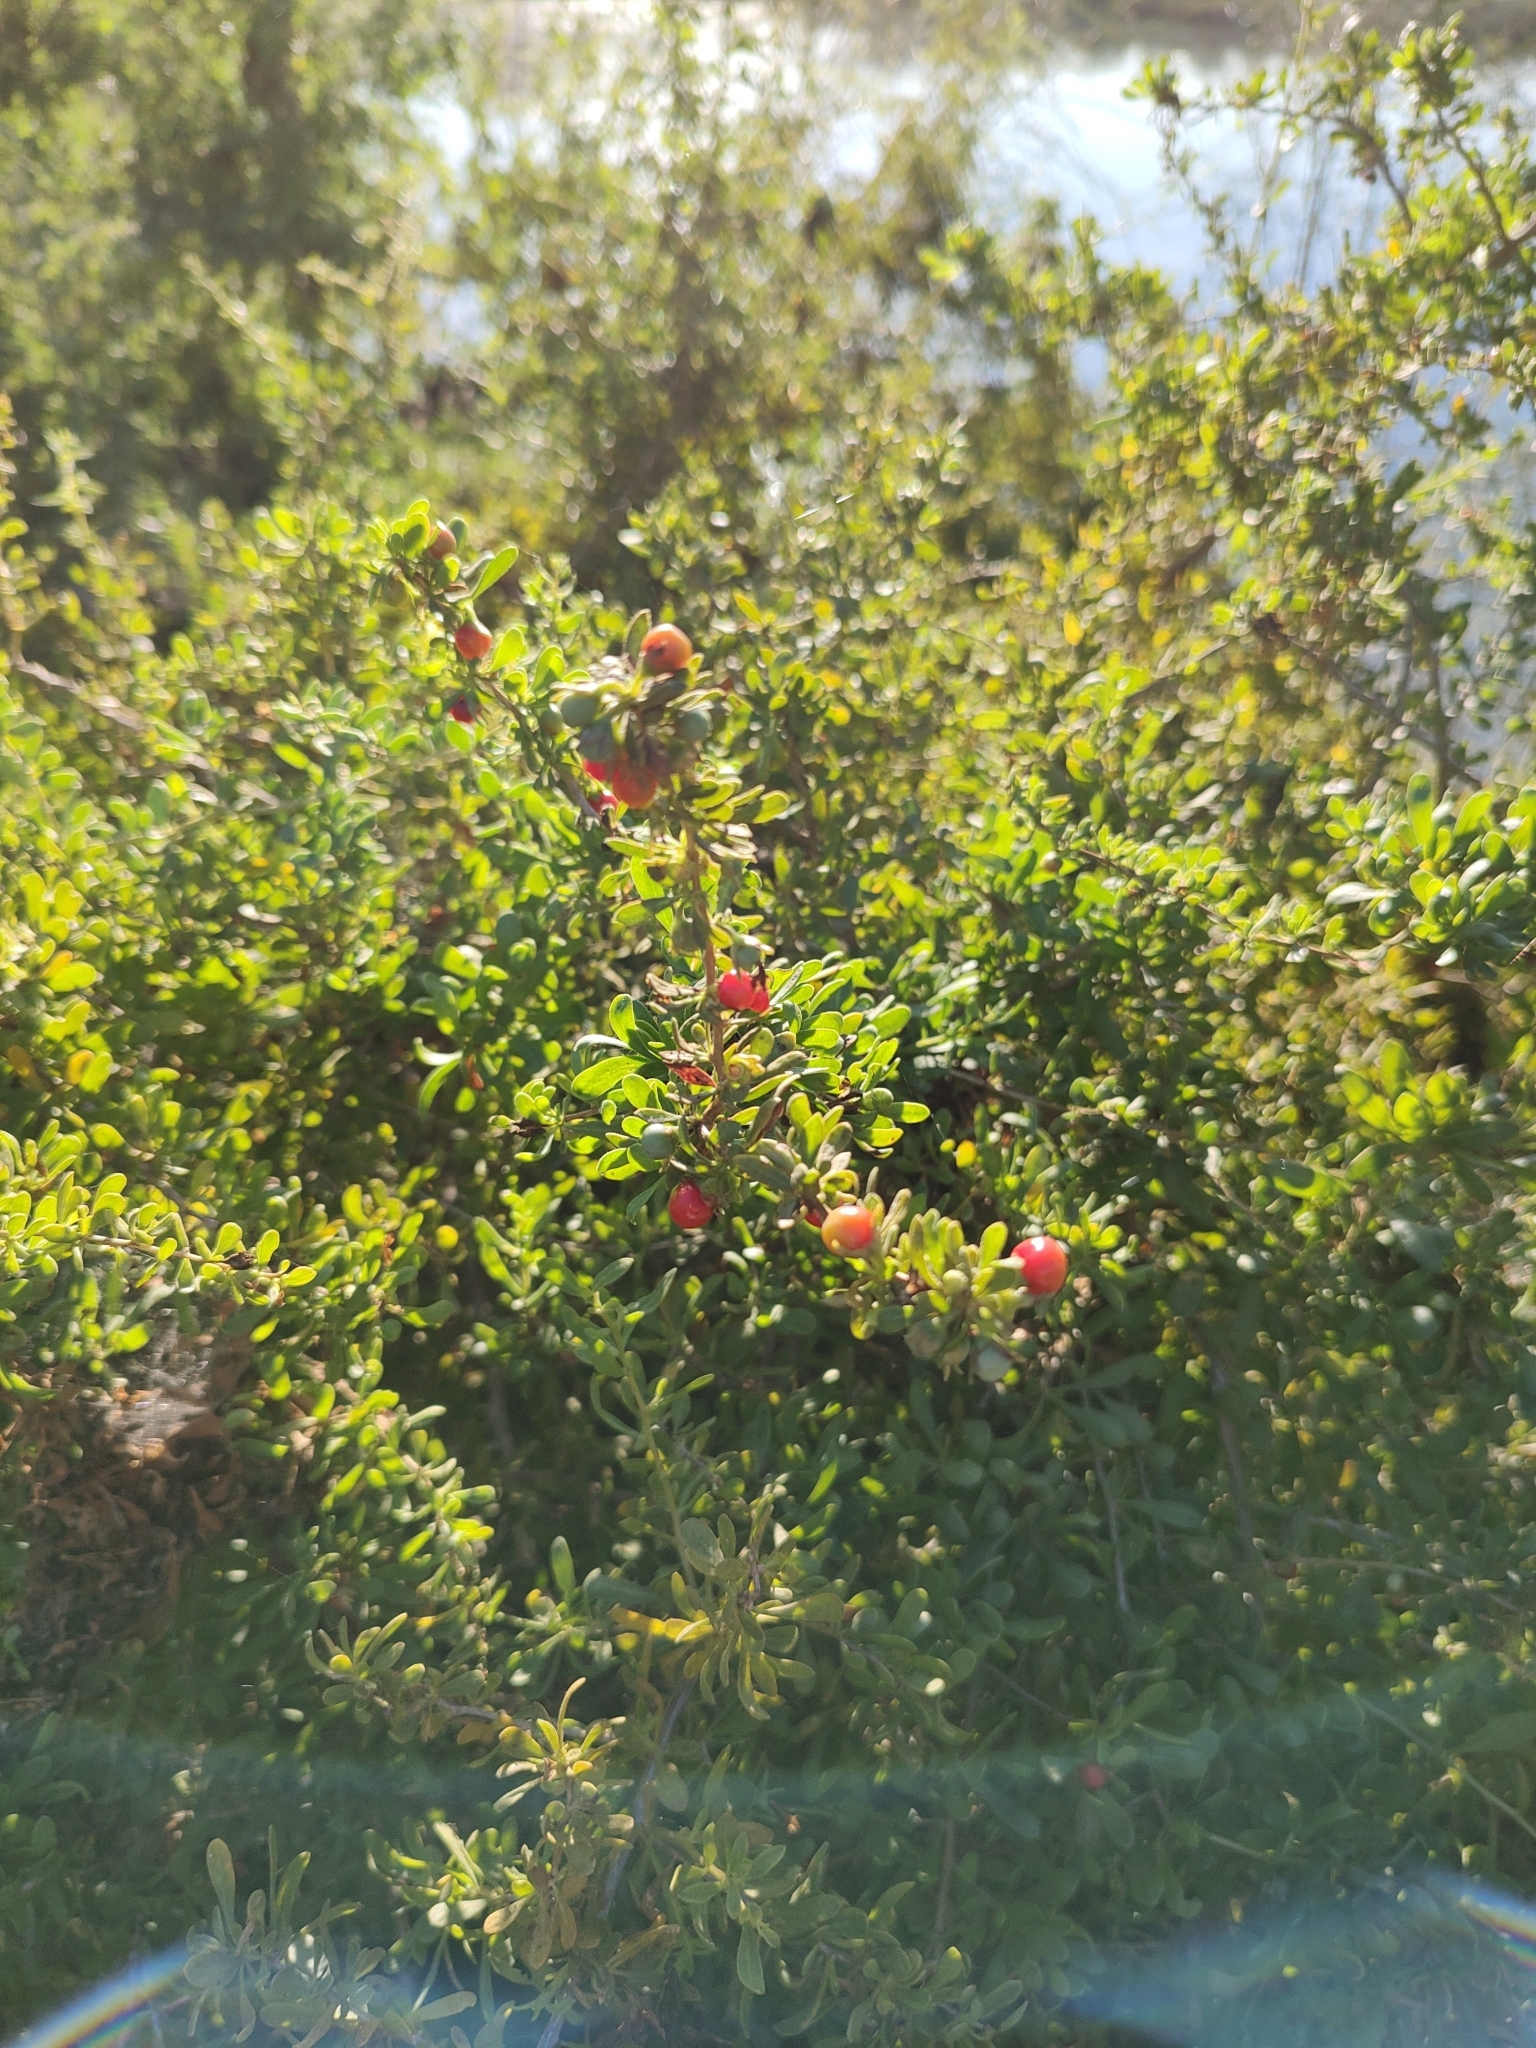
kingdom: Plantae
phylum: Tracheophyta
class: Magnoliopsida
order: Solanales
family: Solanaceae
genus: Lycium
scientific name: Lycium brevipes
